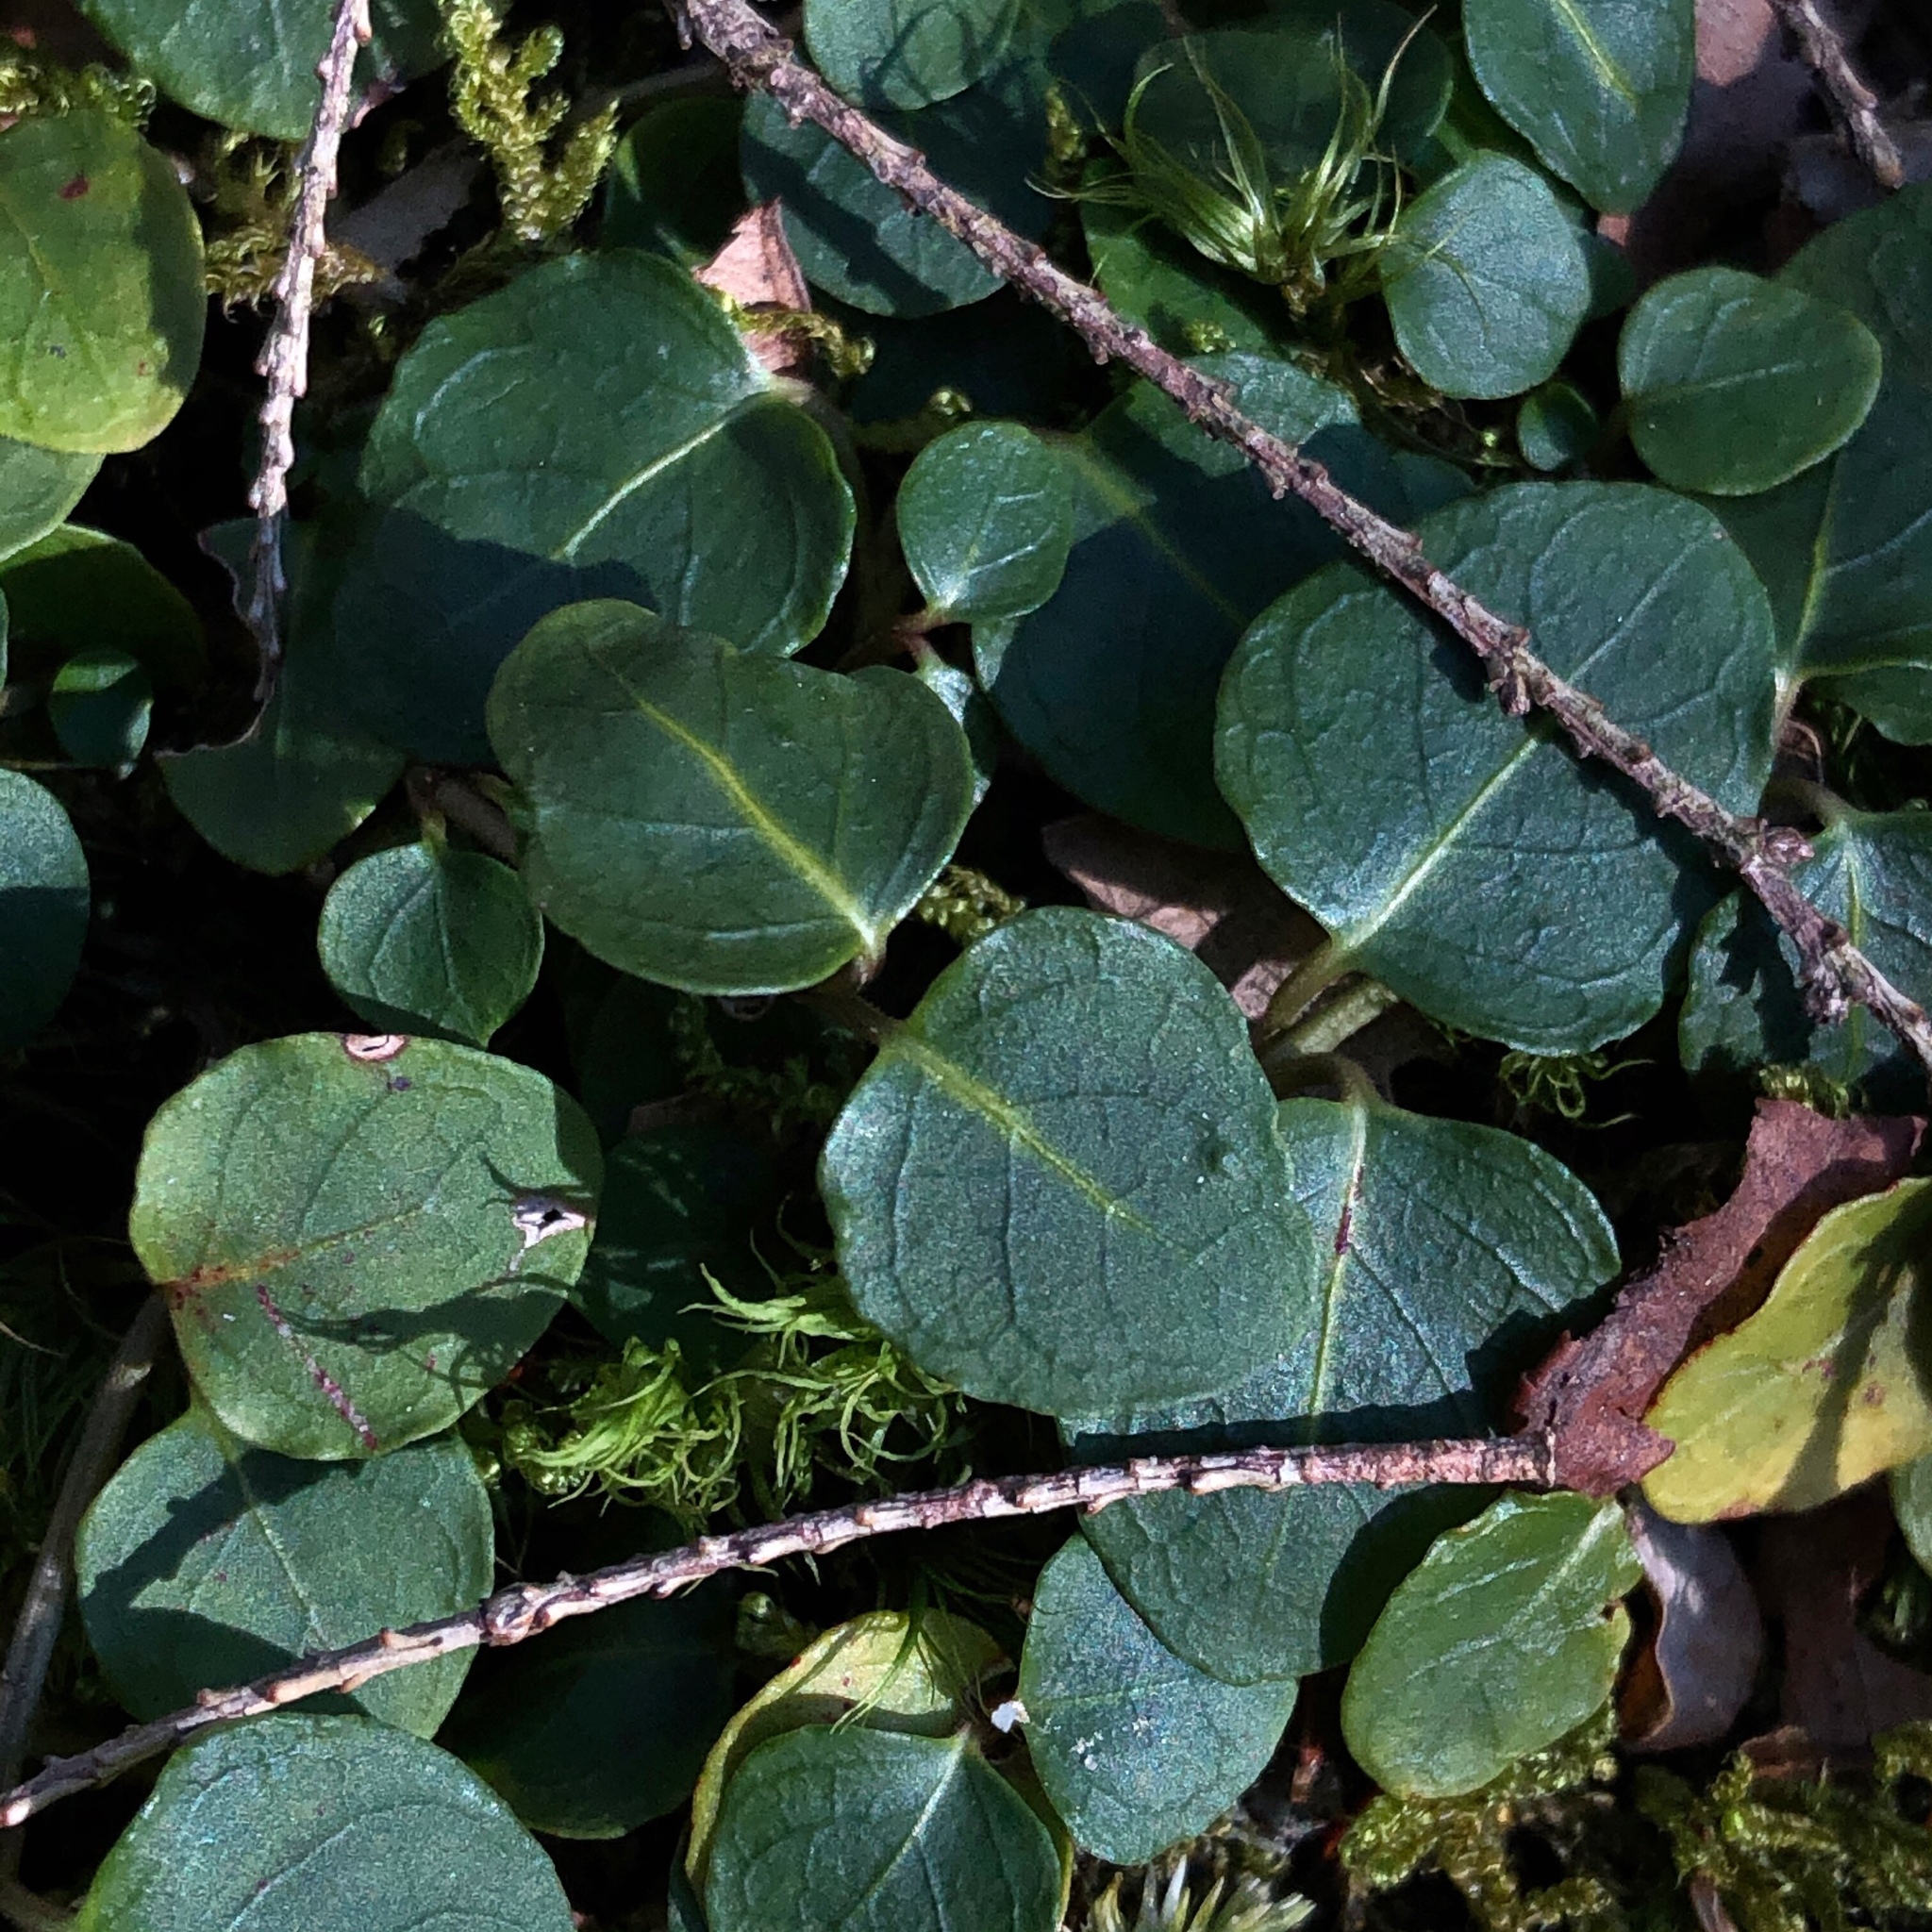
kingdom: Plantae
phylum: Tracheophyta
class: Magnoliopsida
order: Gentianales
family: Rubiaceae
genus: Mitchella
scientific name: Mitchella repens
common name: Partridge-berry
